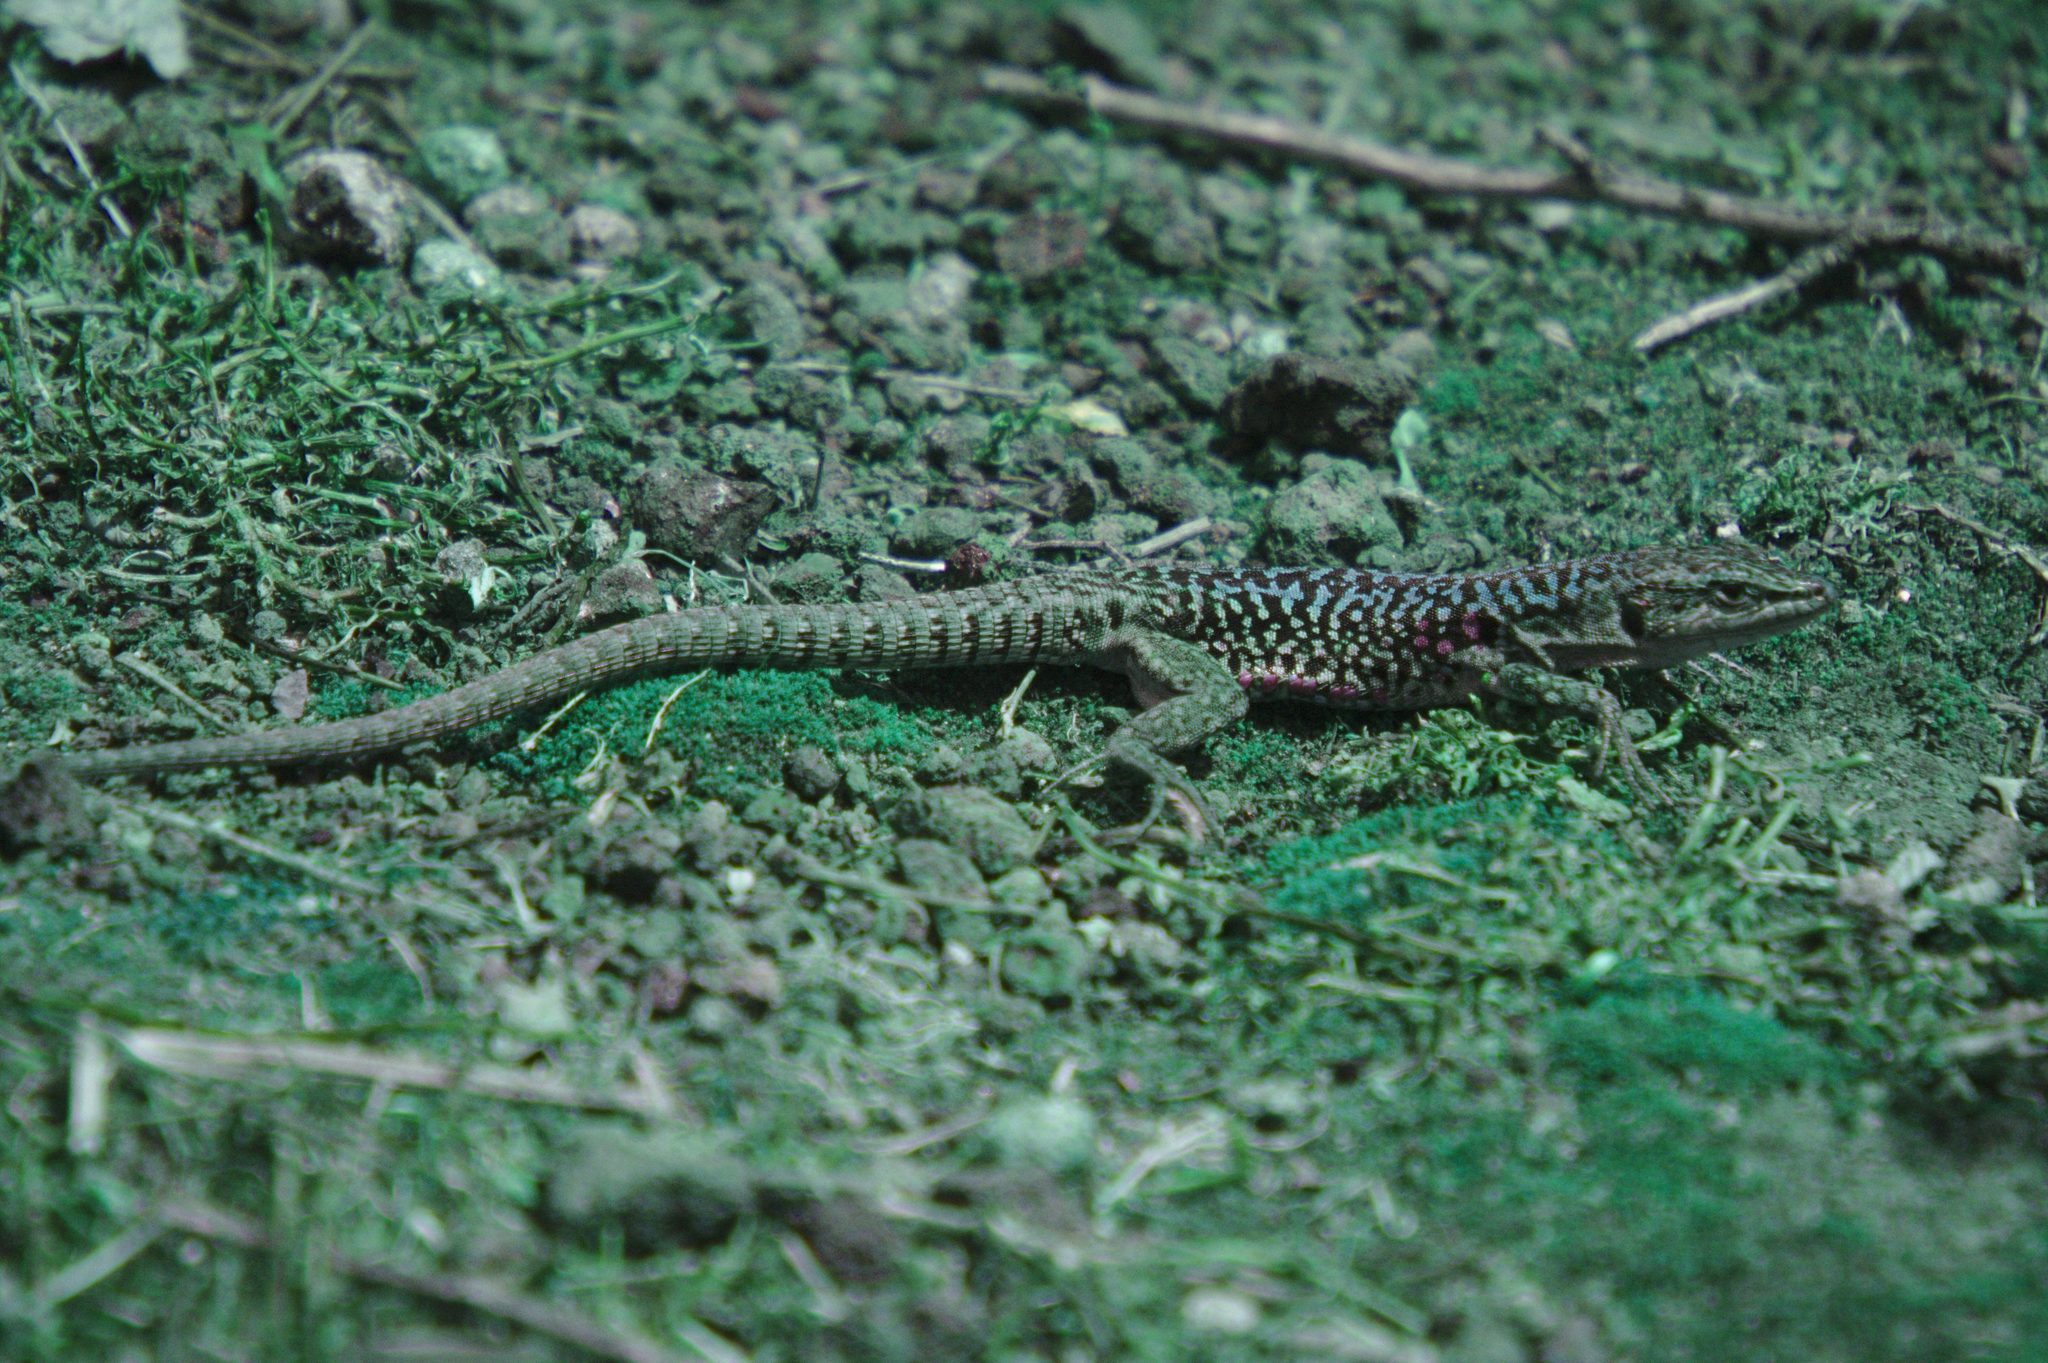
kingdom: Animalia
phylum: Chordata
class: Squamata
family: Lacertidae
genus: Podarcis
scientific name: Podarcis siculus
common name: Italian wall lizard
